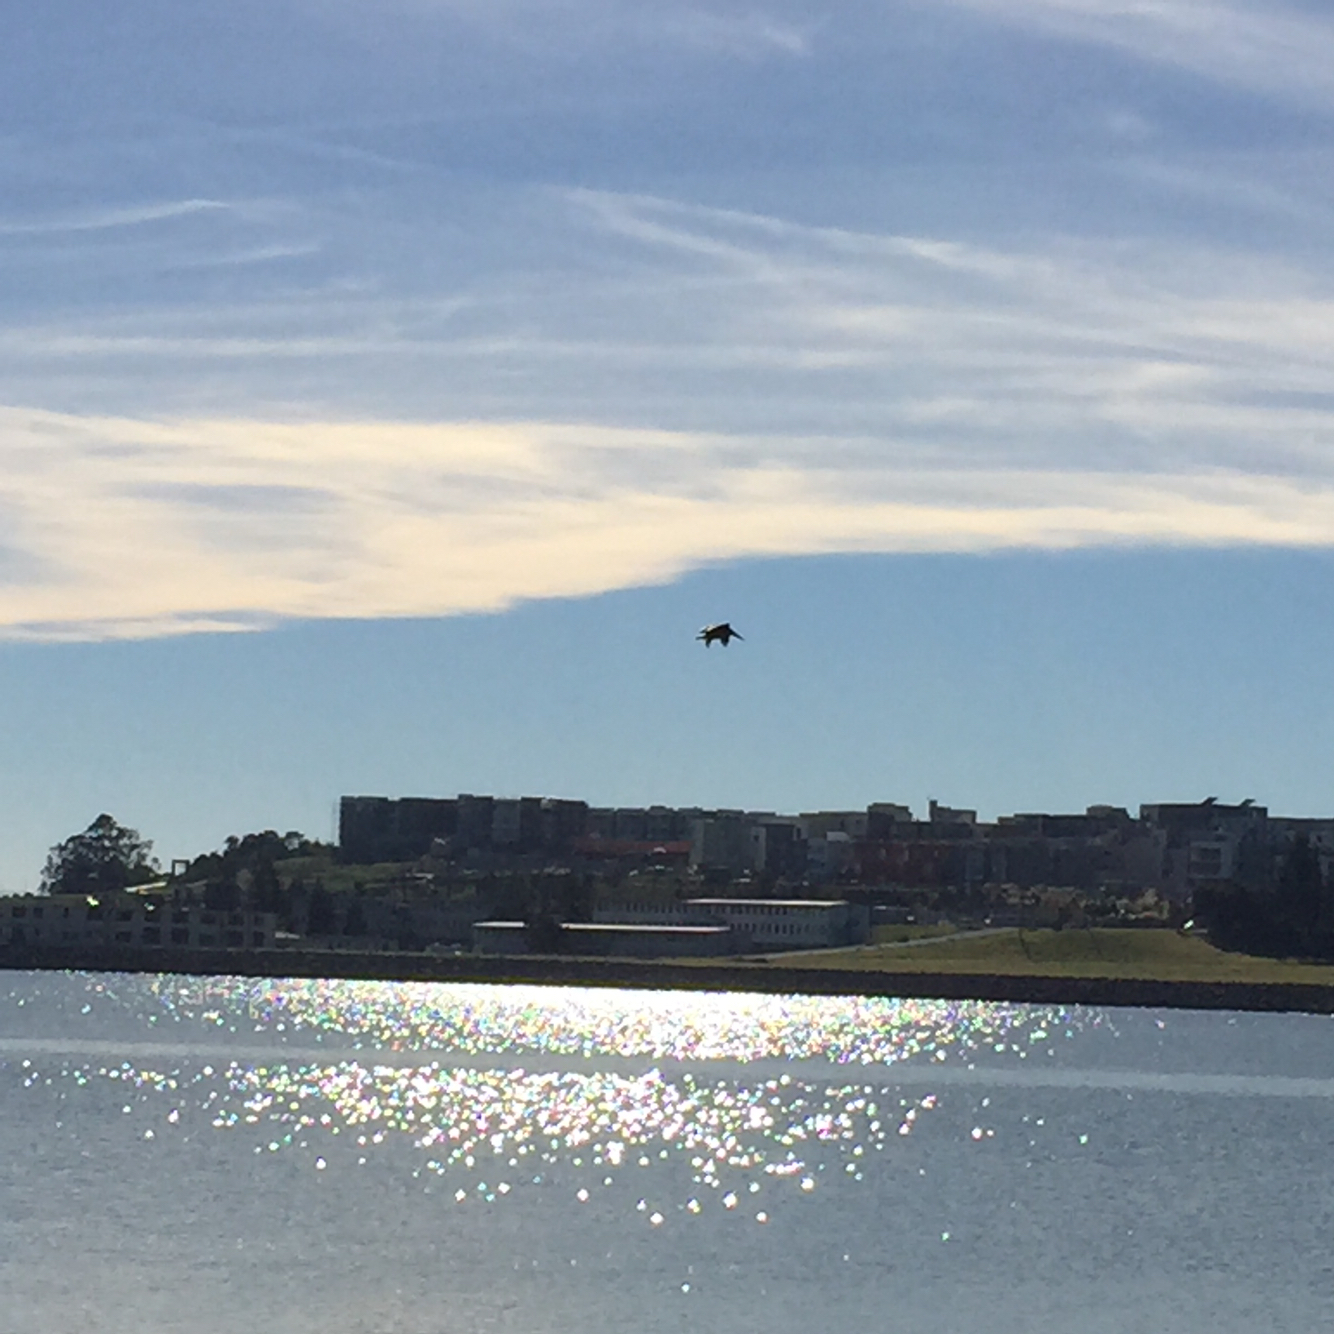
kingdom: Animalia
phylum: Chordata
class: Aves
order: Pelecaniformes
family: Pelecanidae
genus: Pelecanus
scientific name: Pelecanus occidentalis
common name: Brown pelican
